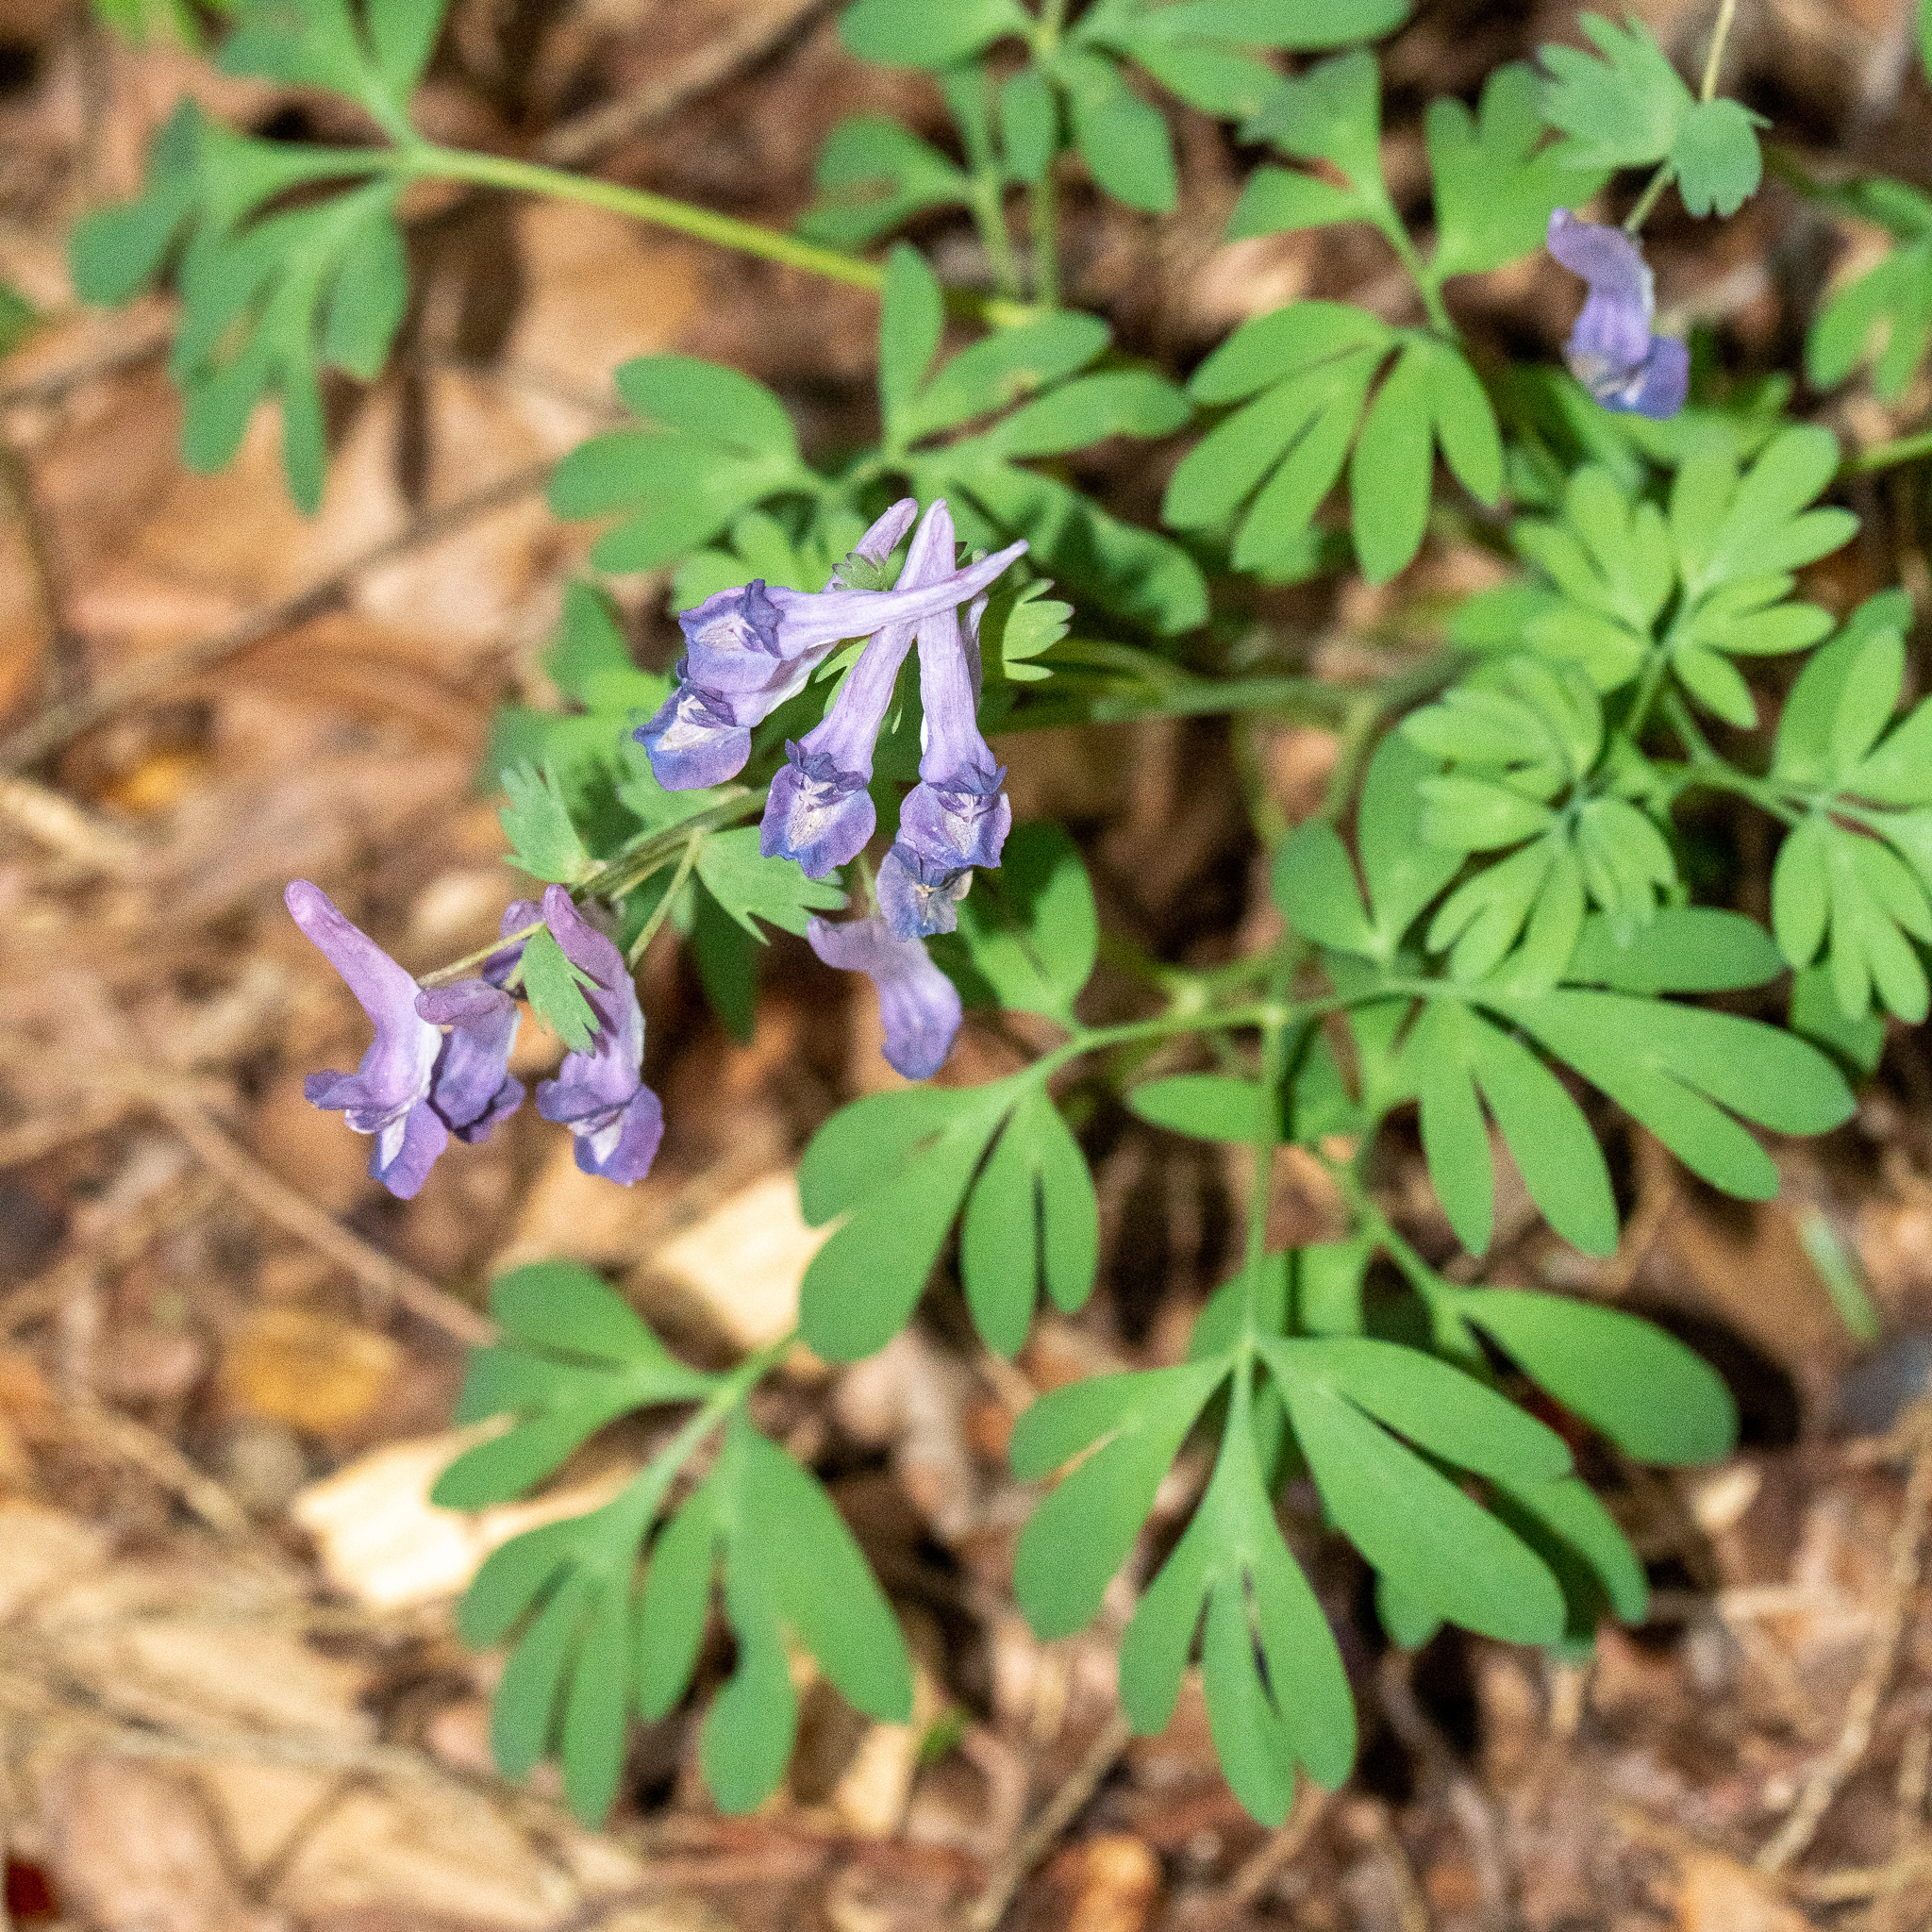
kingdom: Plantae
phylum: Tracheophyta
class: Magnoliopsida
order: Ranunculales
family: Papaveraceae
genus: Corydalis
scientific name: Corydalis solida
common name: Bird-in-a-bush
